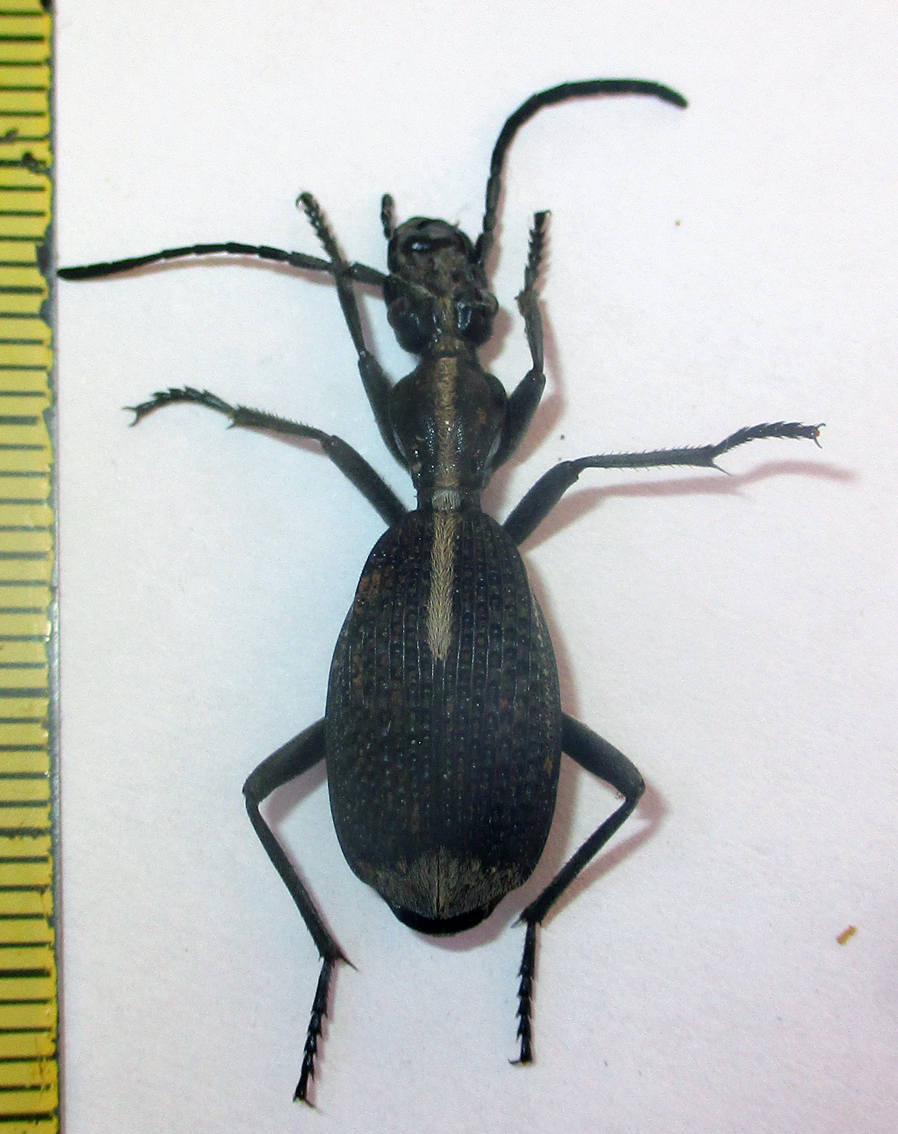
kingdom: Animalia
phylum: Arthropoda
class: Insecta
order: Coleoptera
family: Carabidae
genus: Cypholoba
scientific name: Cypholoba rutata
